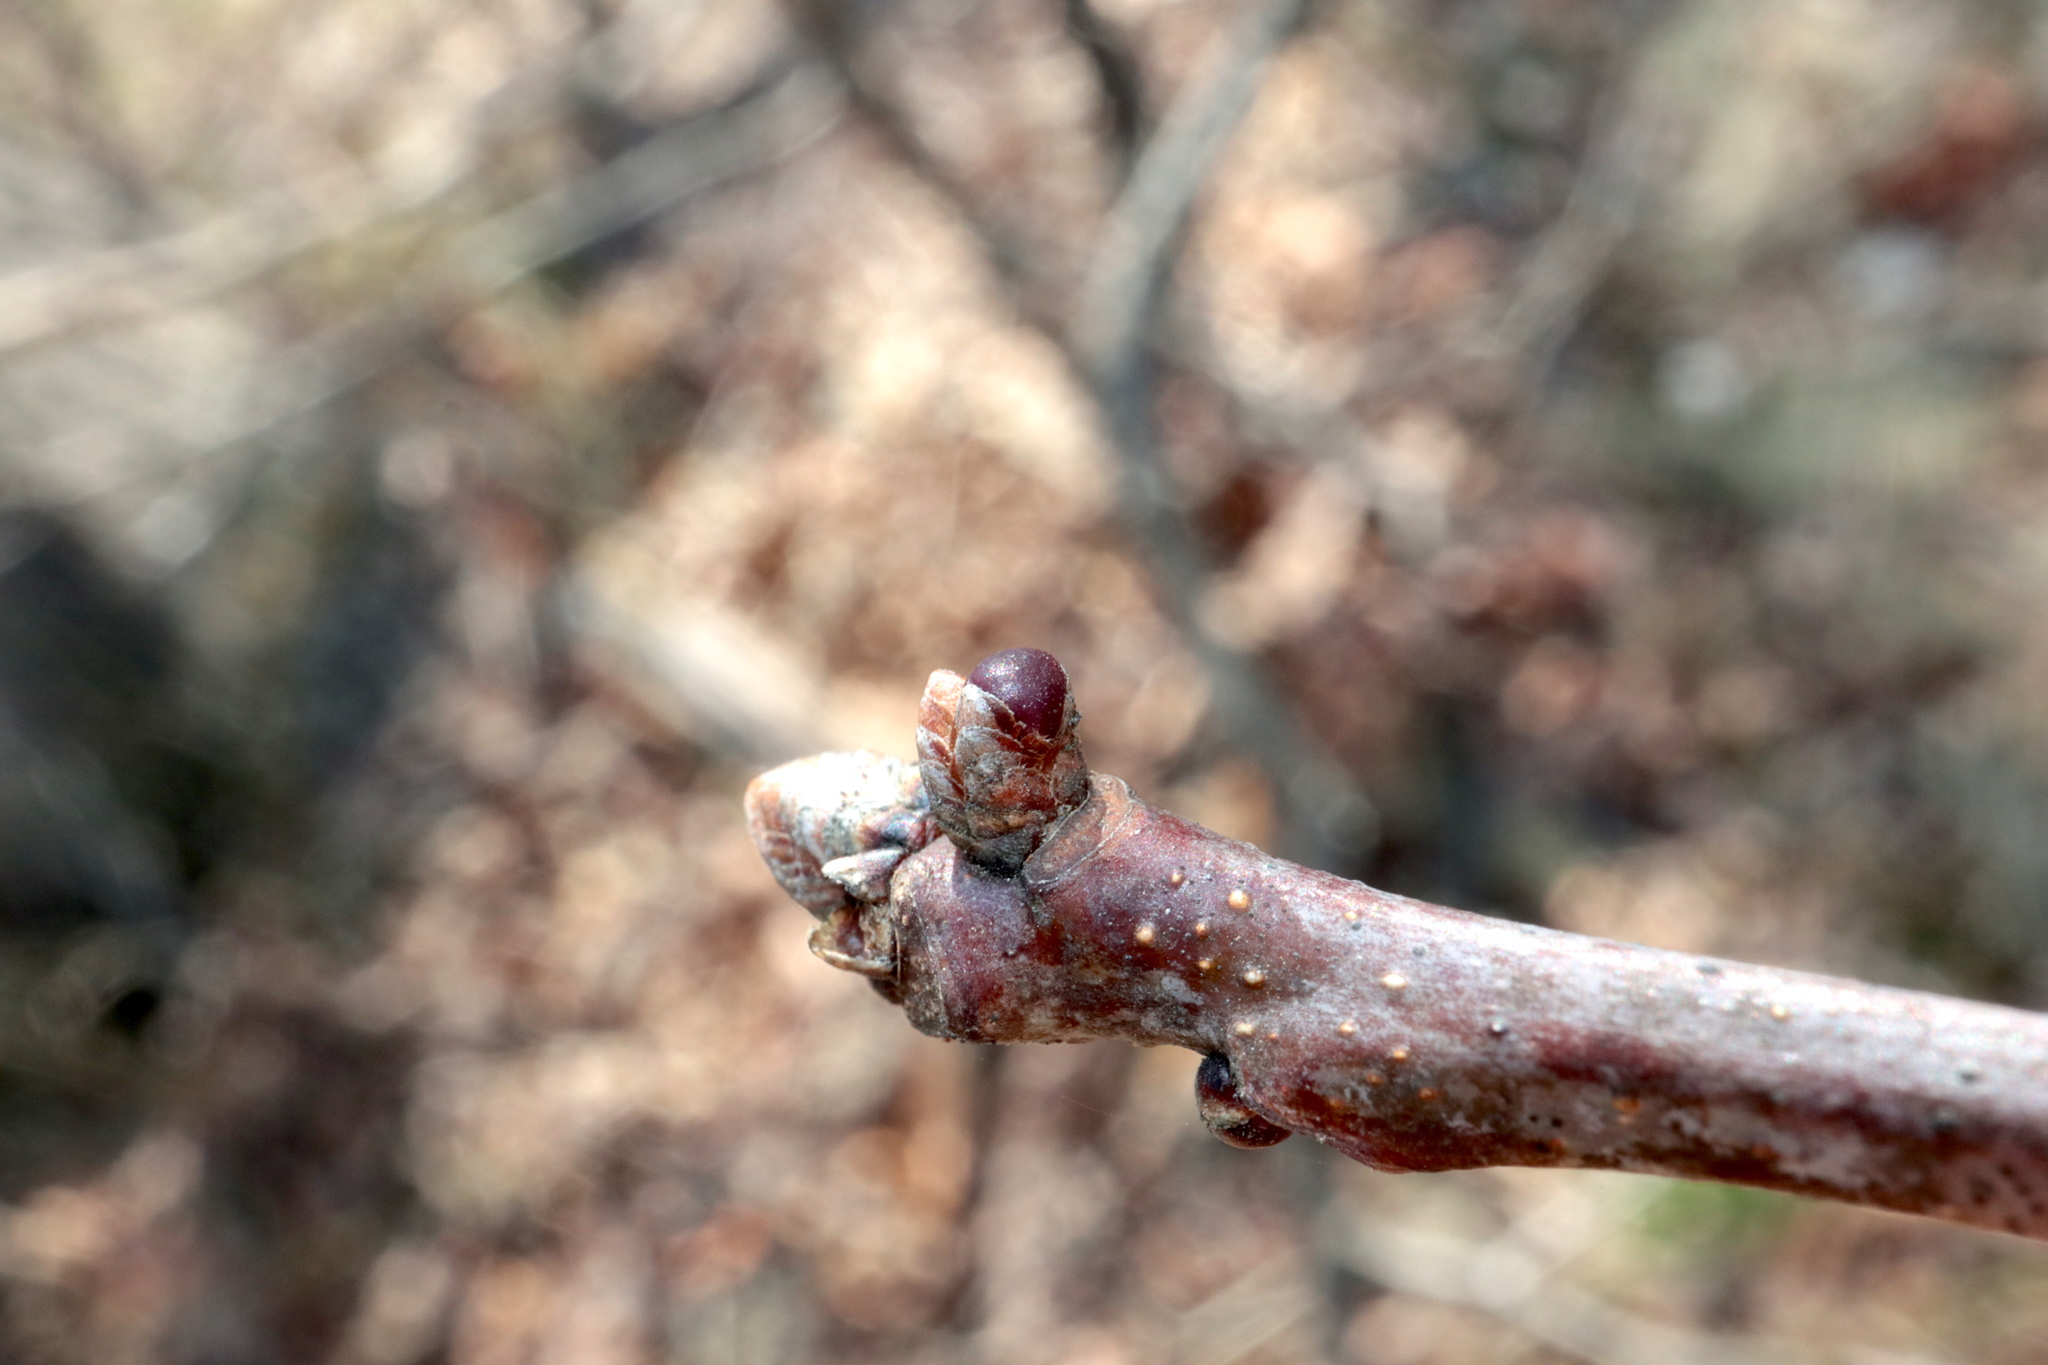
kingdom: Animalia
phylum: Arthropoda
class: Insecta
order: Hymenoptera
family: Cynipidae
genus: Neuroterus
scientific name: Neuroterus
